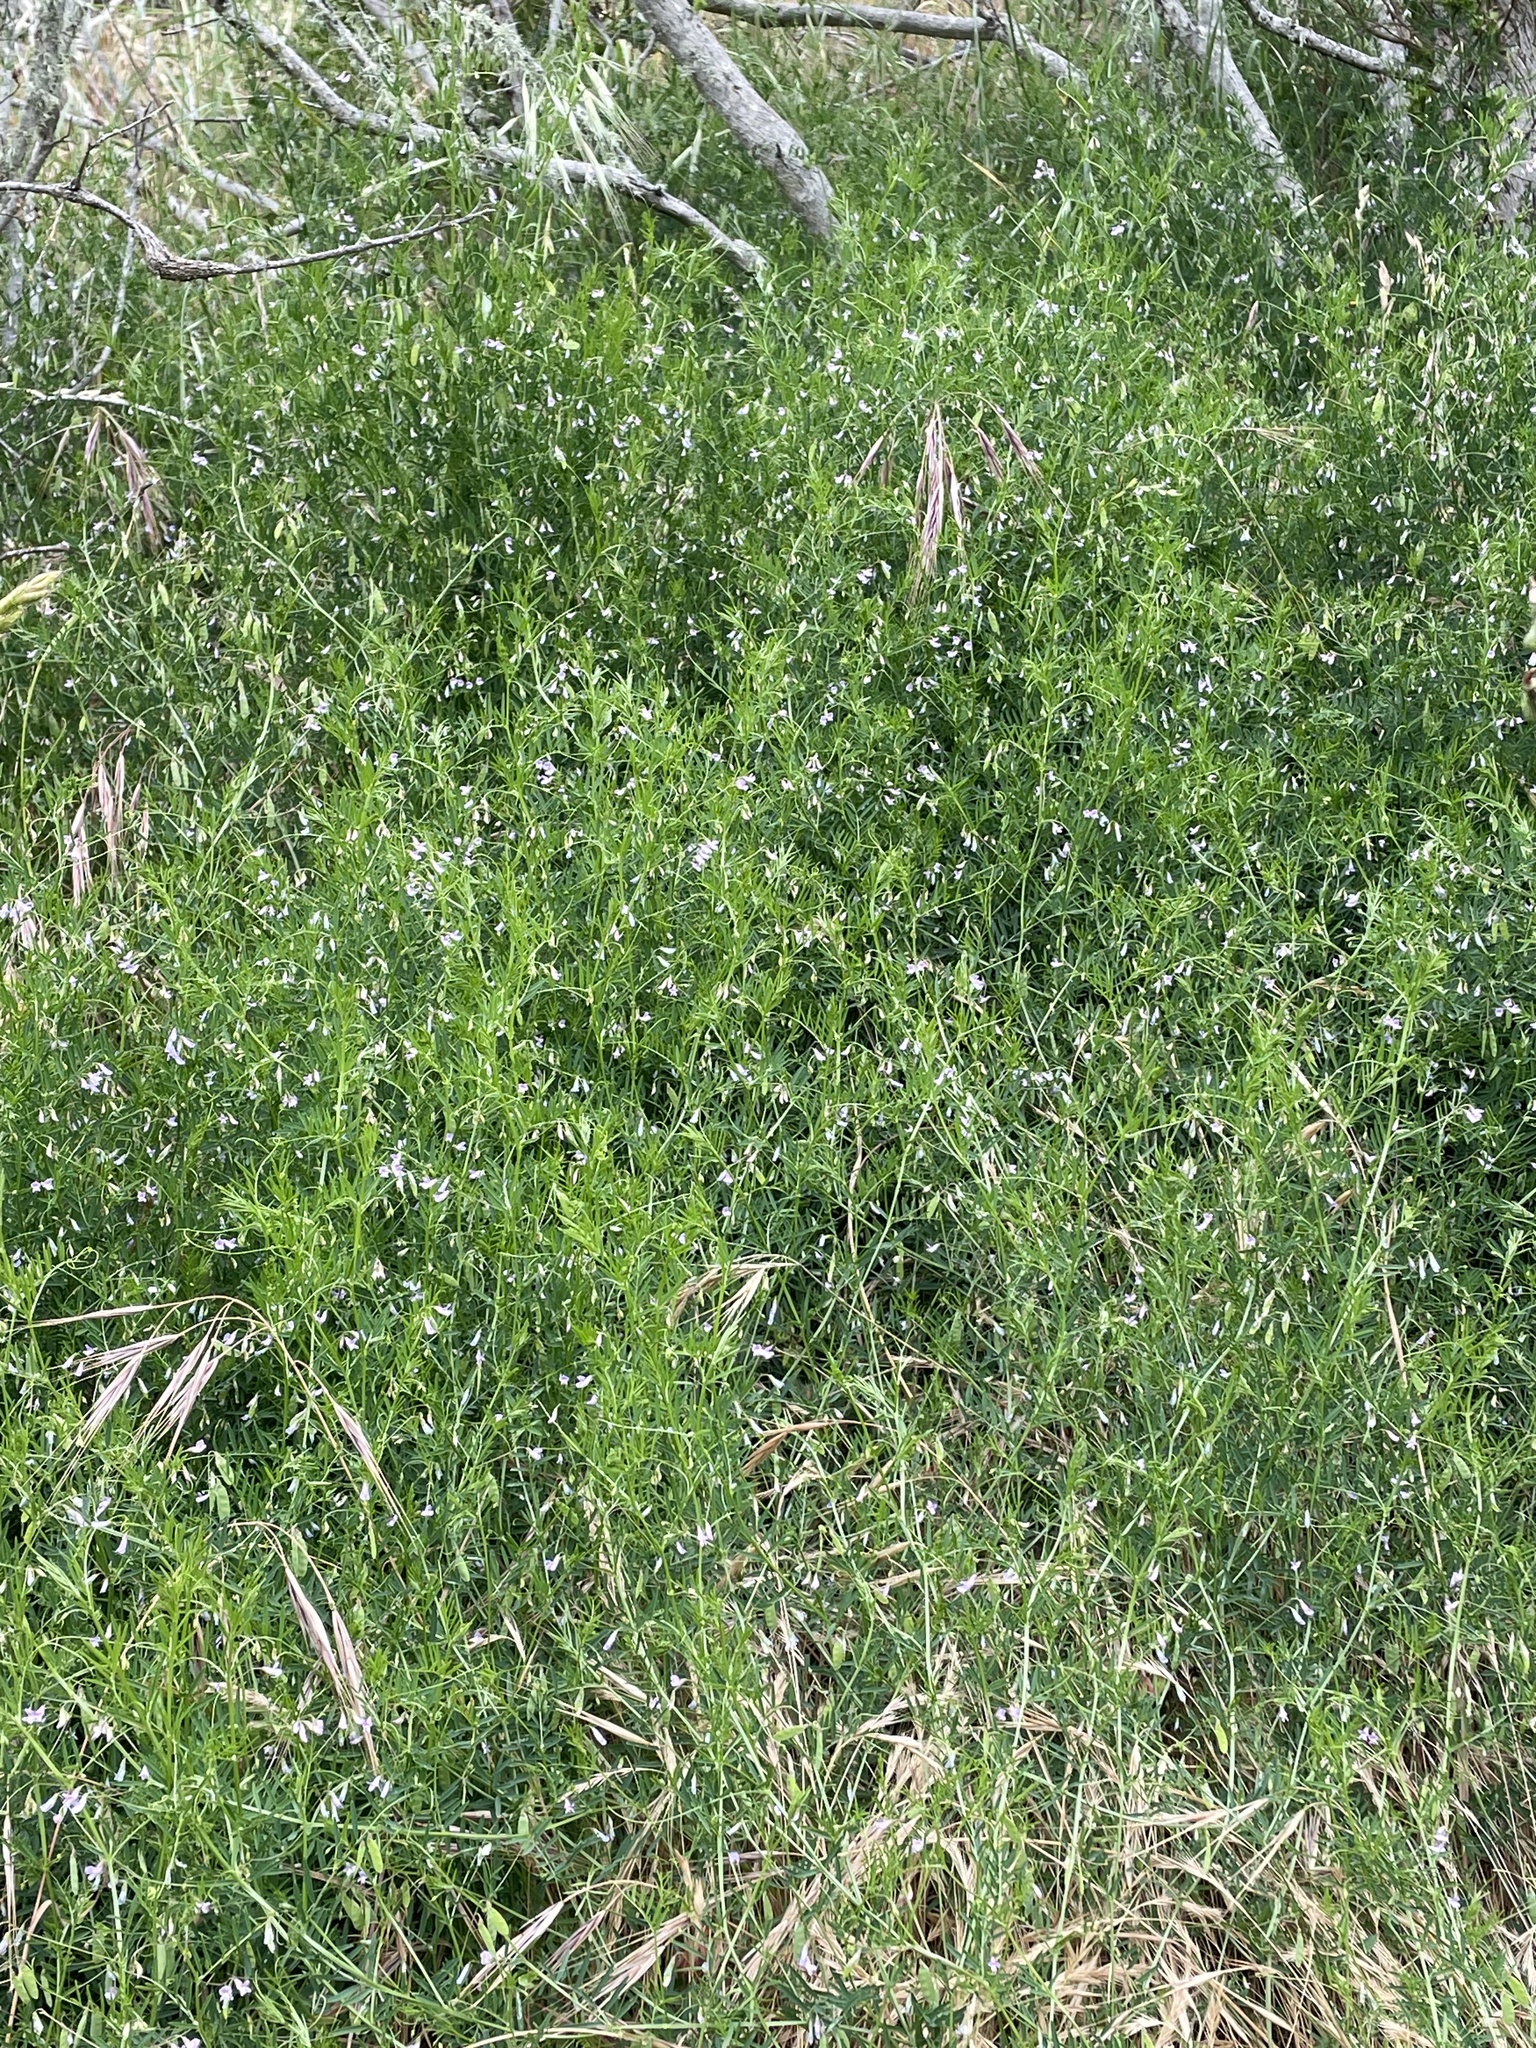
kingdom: Plantae
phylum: Tracheophyta
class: Magnoliopsida
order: Fabales
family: Fabaceae
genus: Vicia
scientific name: Vicia tetrasperma
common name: Smooth tare
